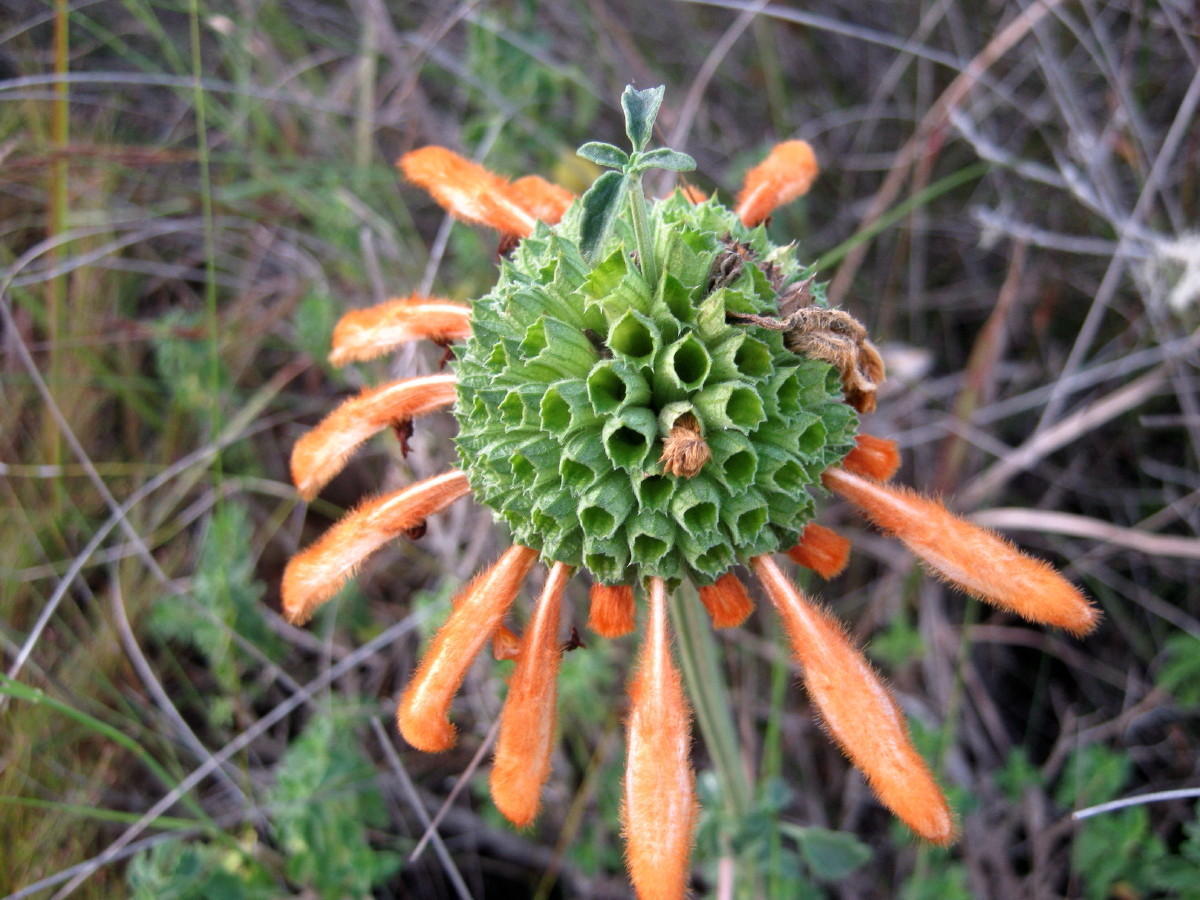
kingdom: Plantae
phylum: Tracheophyta
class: Magnoliopsida
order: Lamiales
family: Lamiaceae
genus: Leonotis
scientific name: Leonotis ocymifolia
